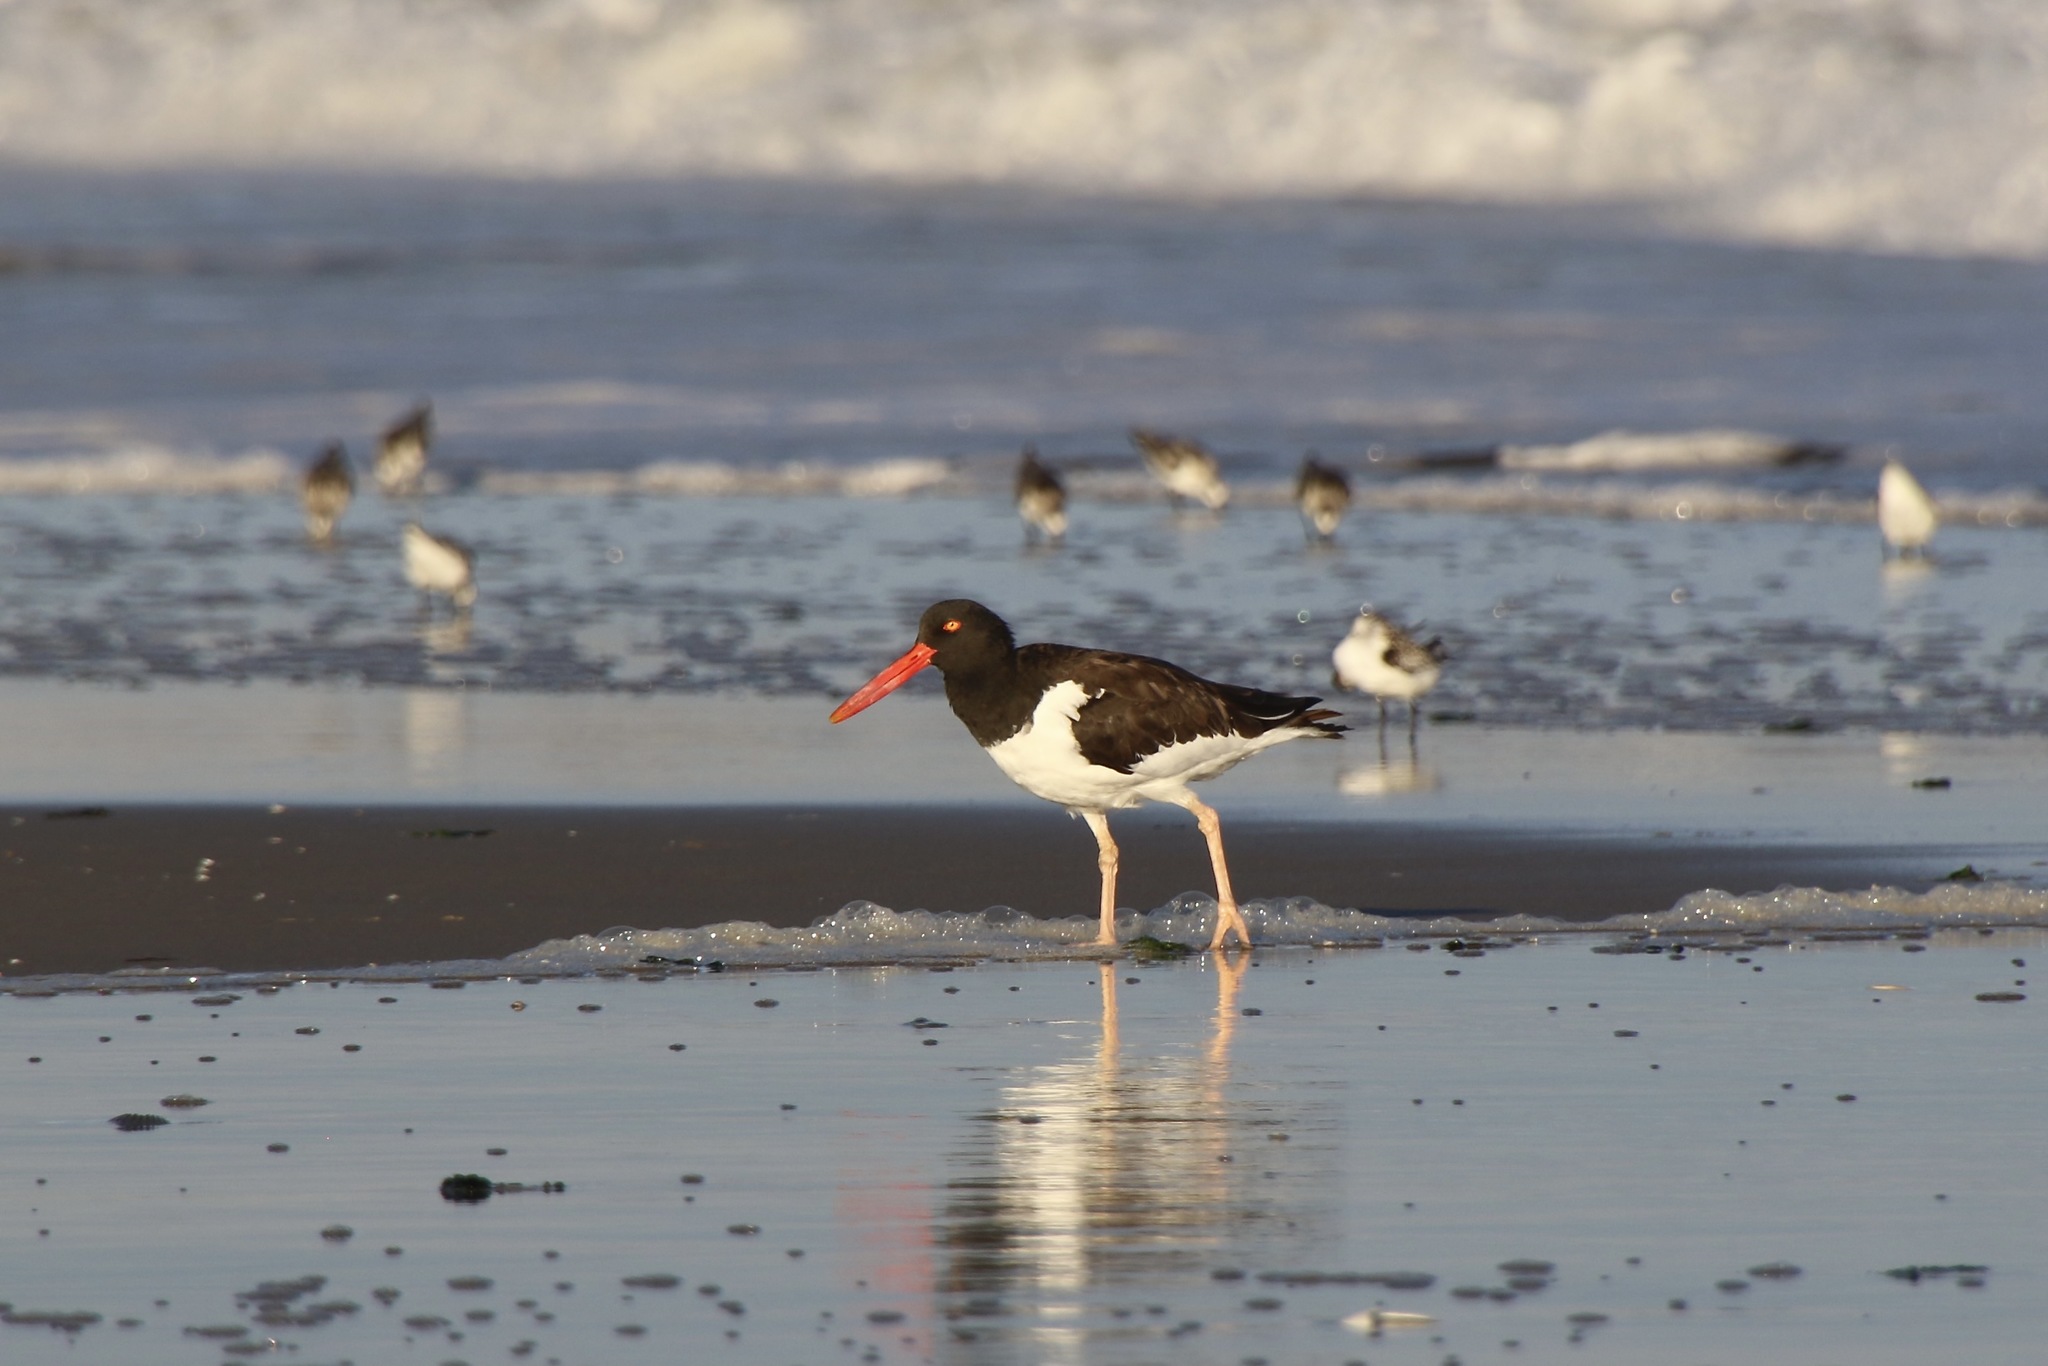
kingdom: Animalia
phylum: Chordata
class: Aves
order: Charadriiformes
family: Haematopodidae
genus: Haematopus
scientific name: Haematopus palliatus
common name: American oystercatcher
